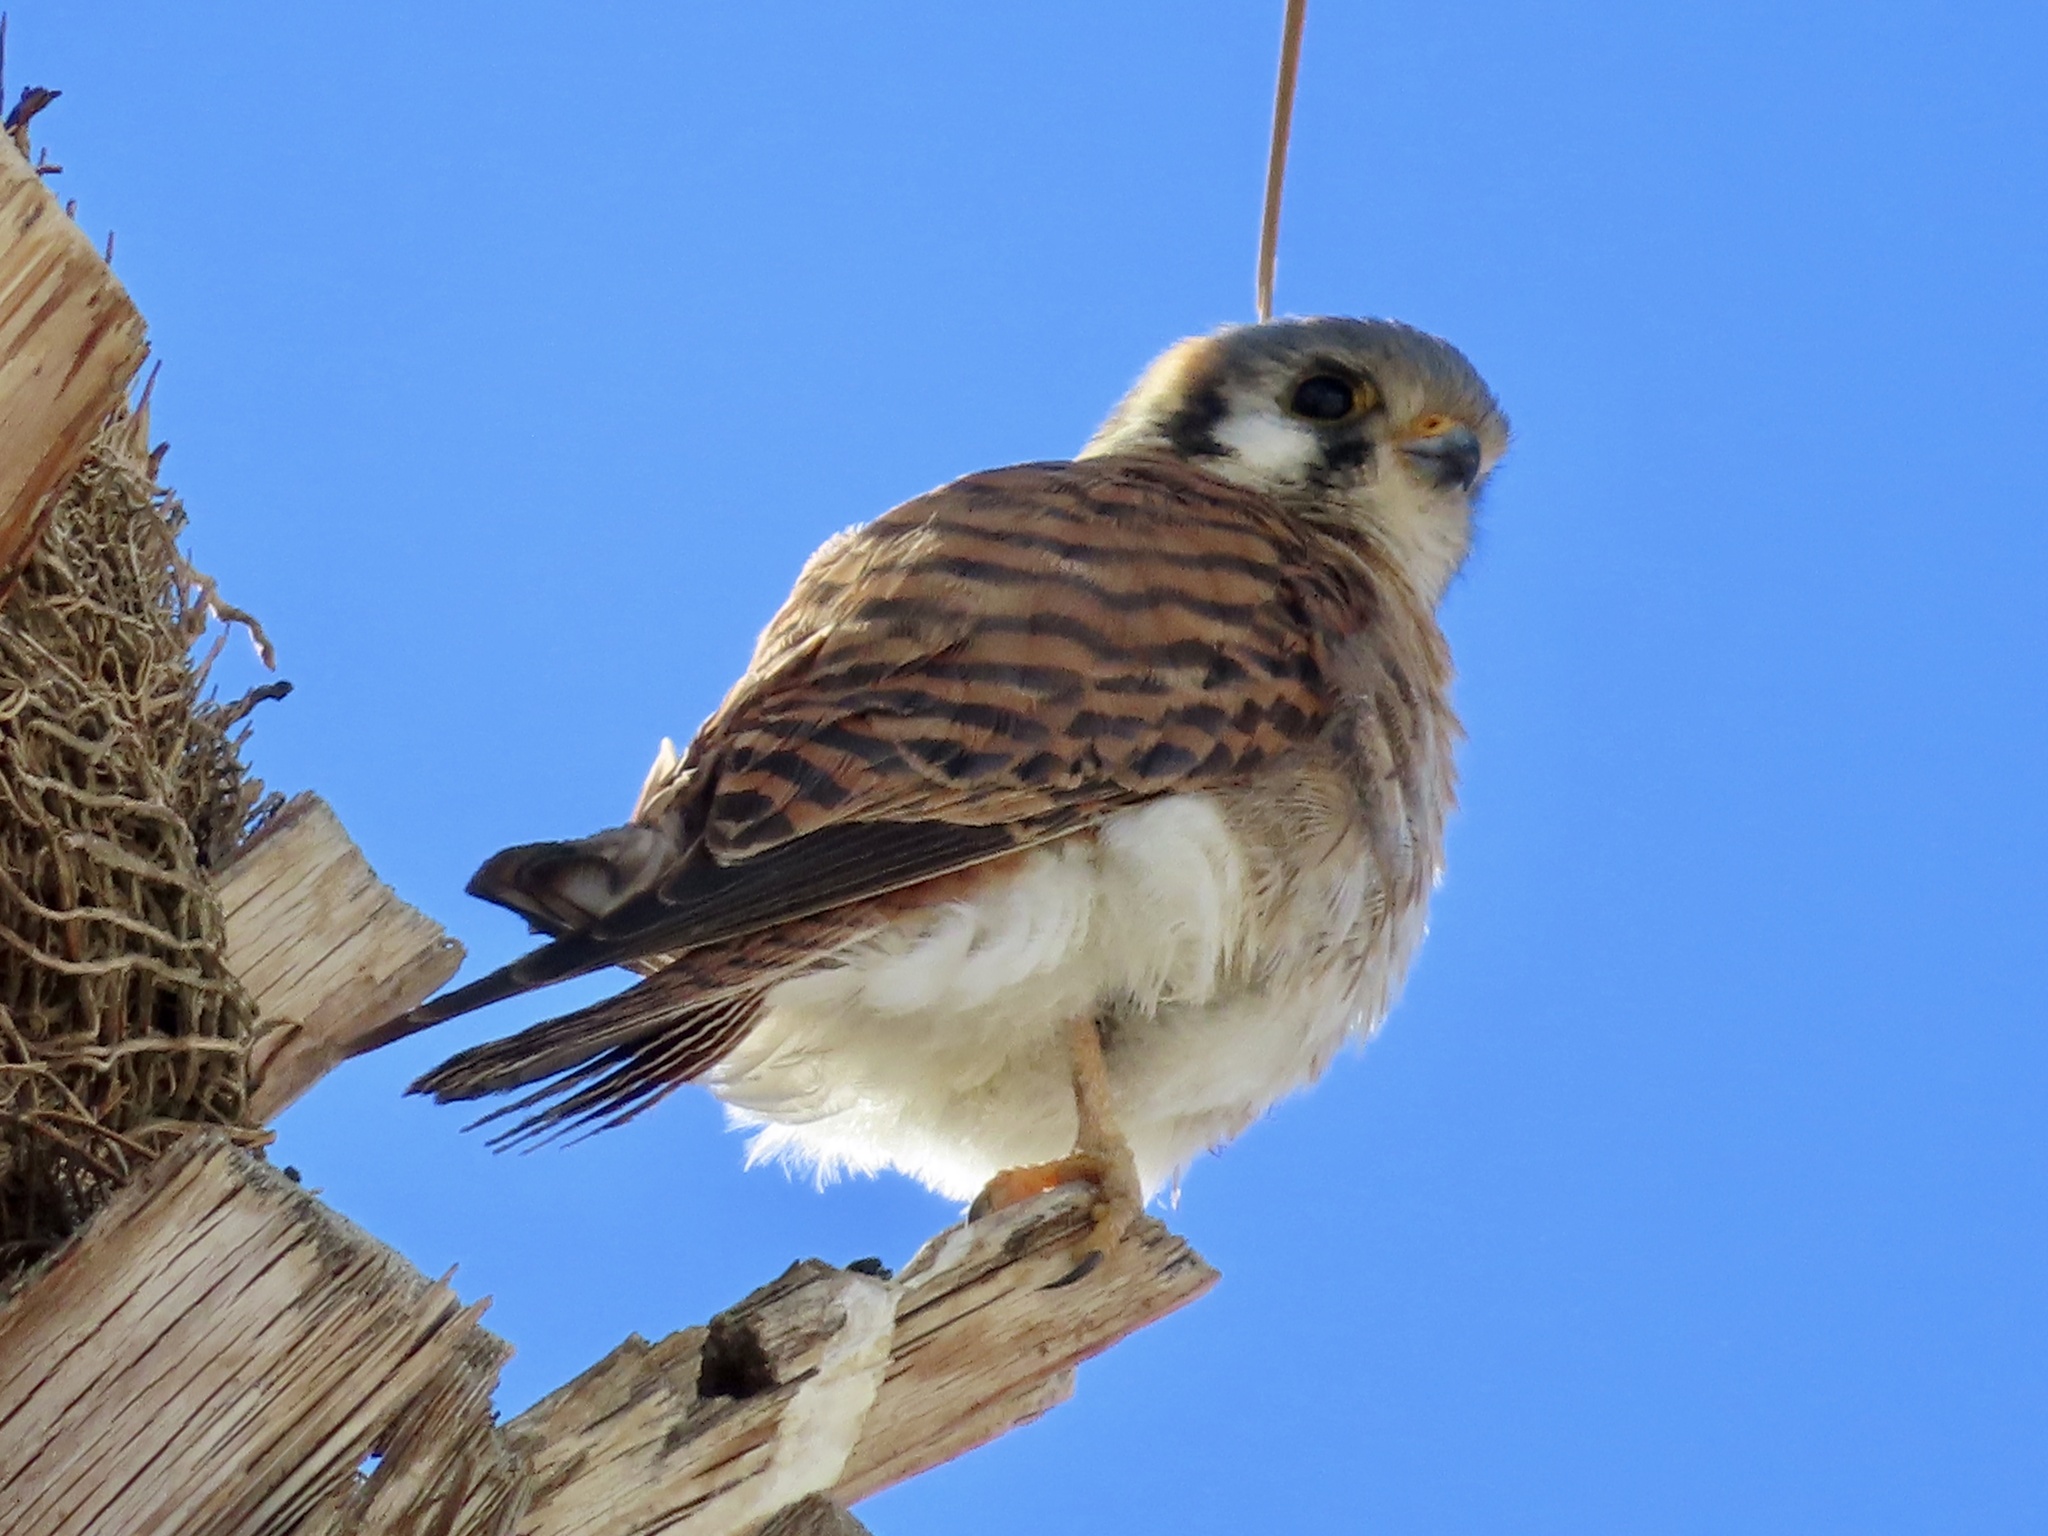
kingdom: Animalia
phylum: Chordata
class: Aves
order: Falconiformes
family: Falconidae
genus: Falco
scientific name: Falco sparverius
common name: American kestrel
